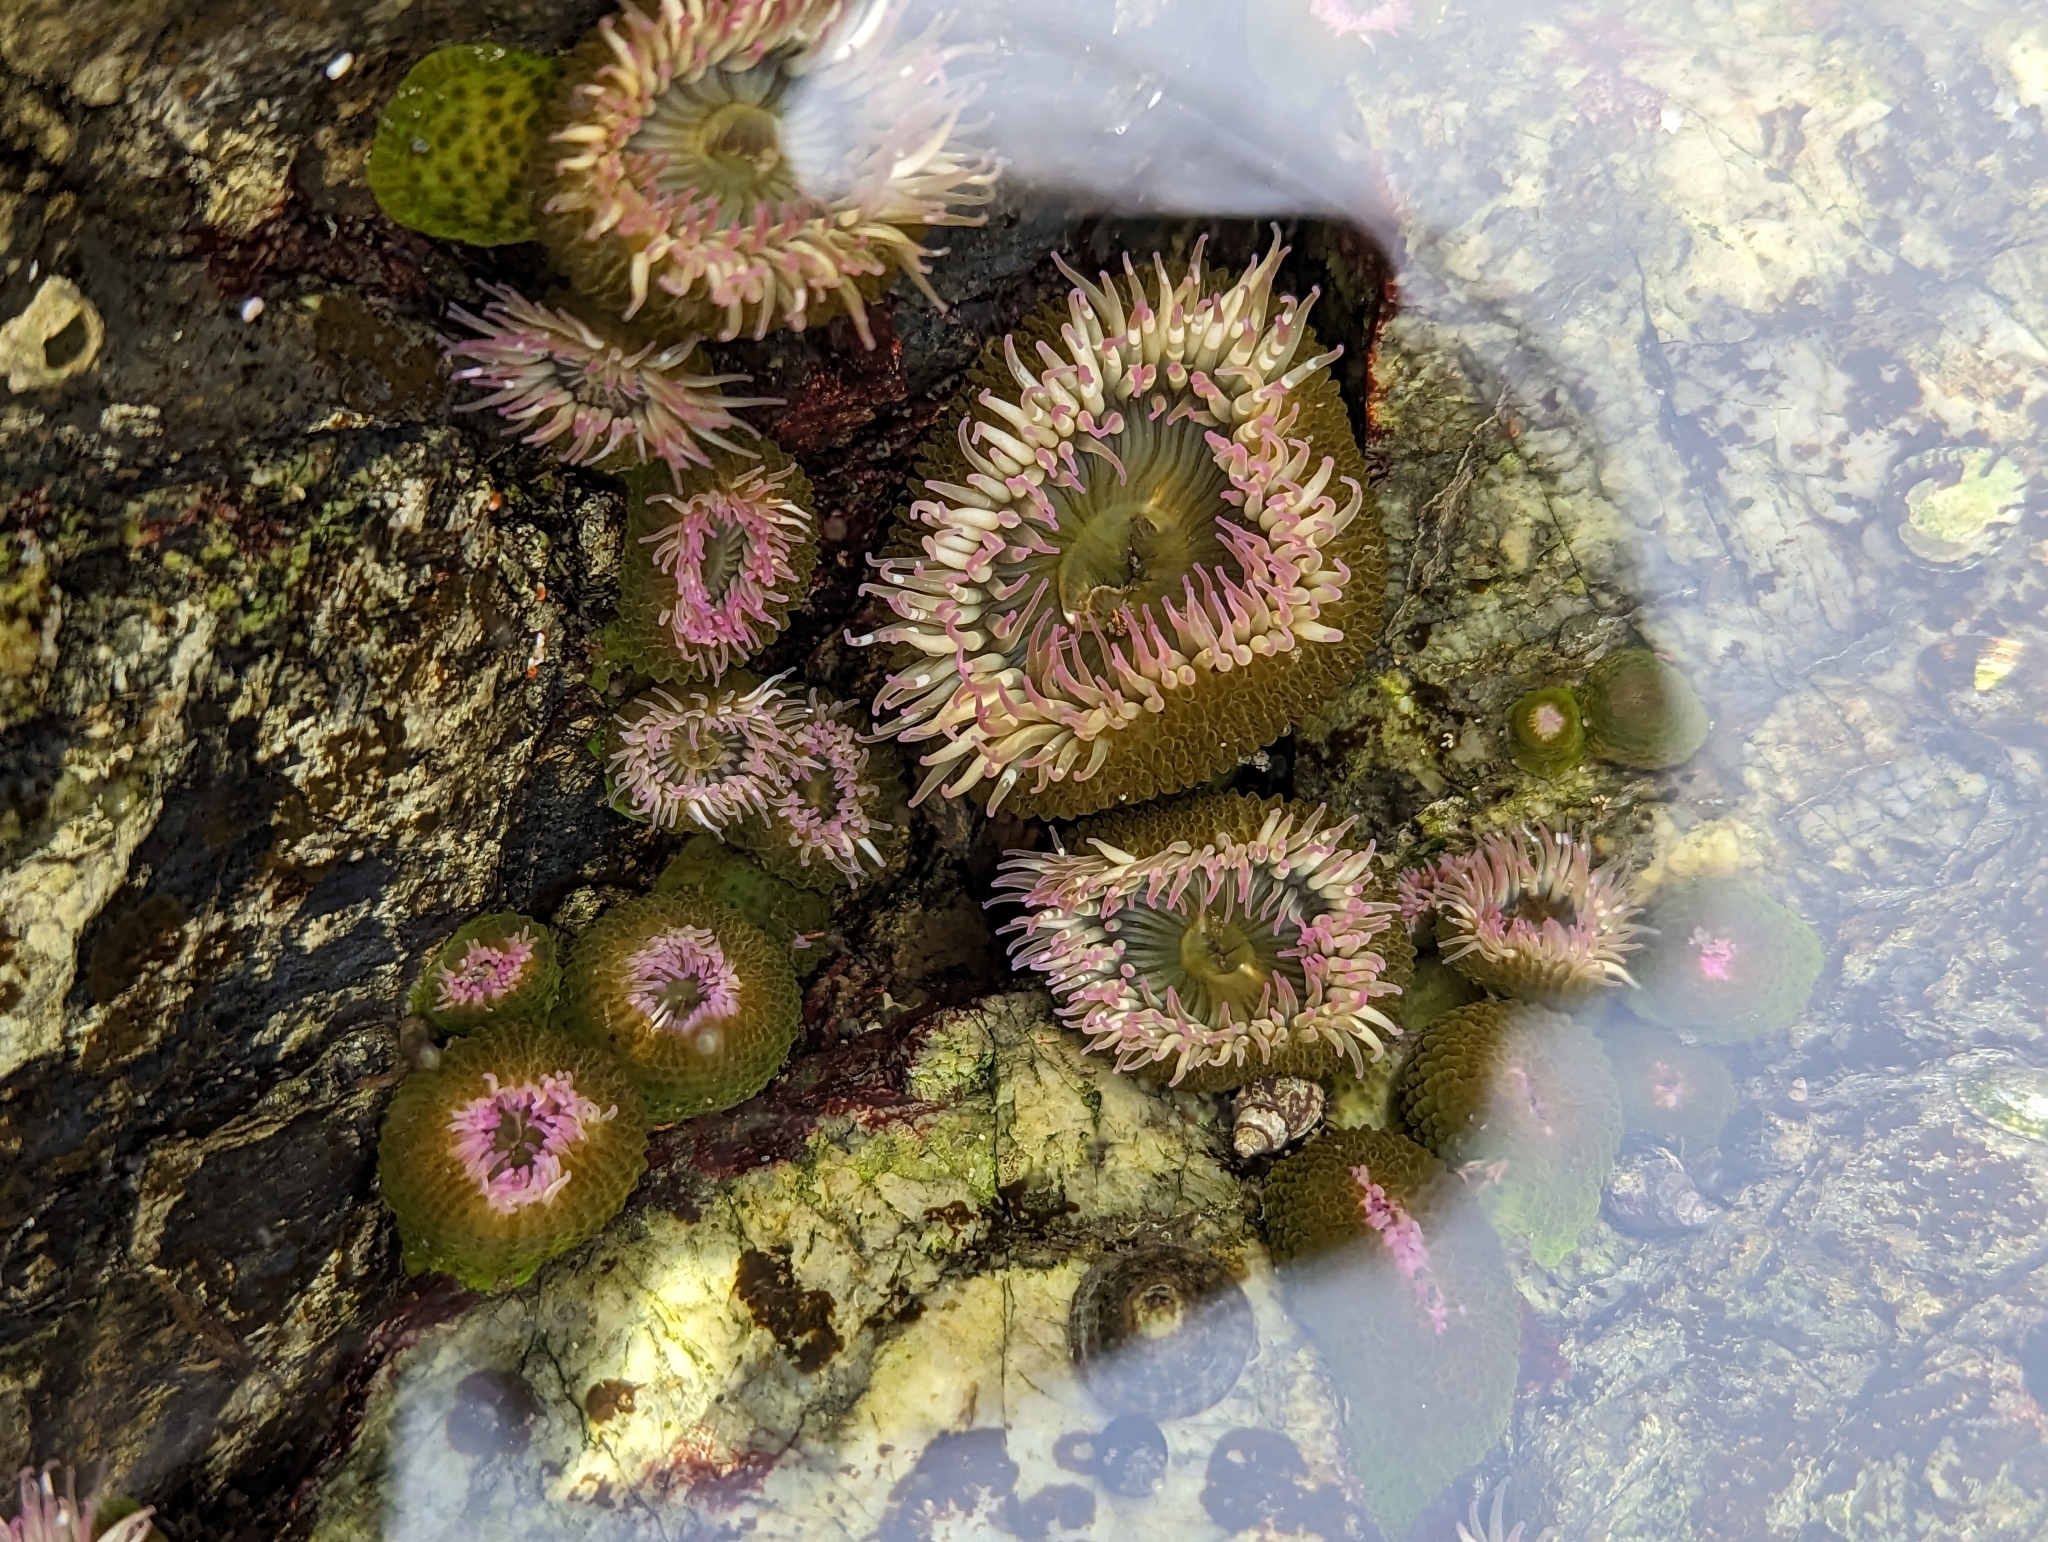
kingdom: Animalia
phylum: Cnidaria
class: Anthozoa
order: Actiniaria
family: Actiniidae
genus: Anthopleura
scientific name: Anthopleura elegantissima
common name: Clonal anemone
